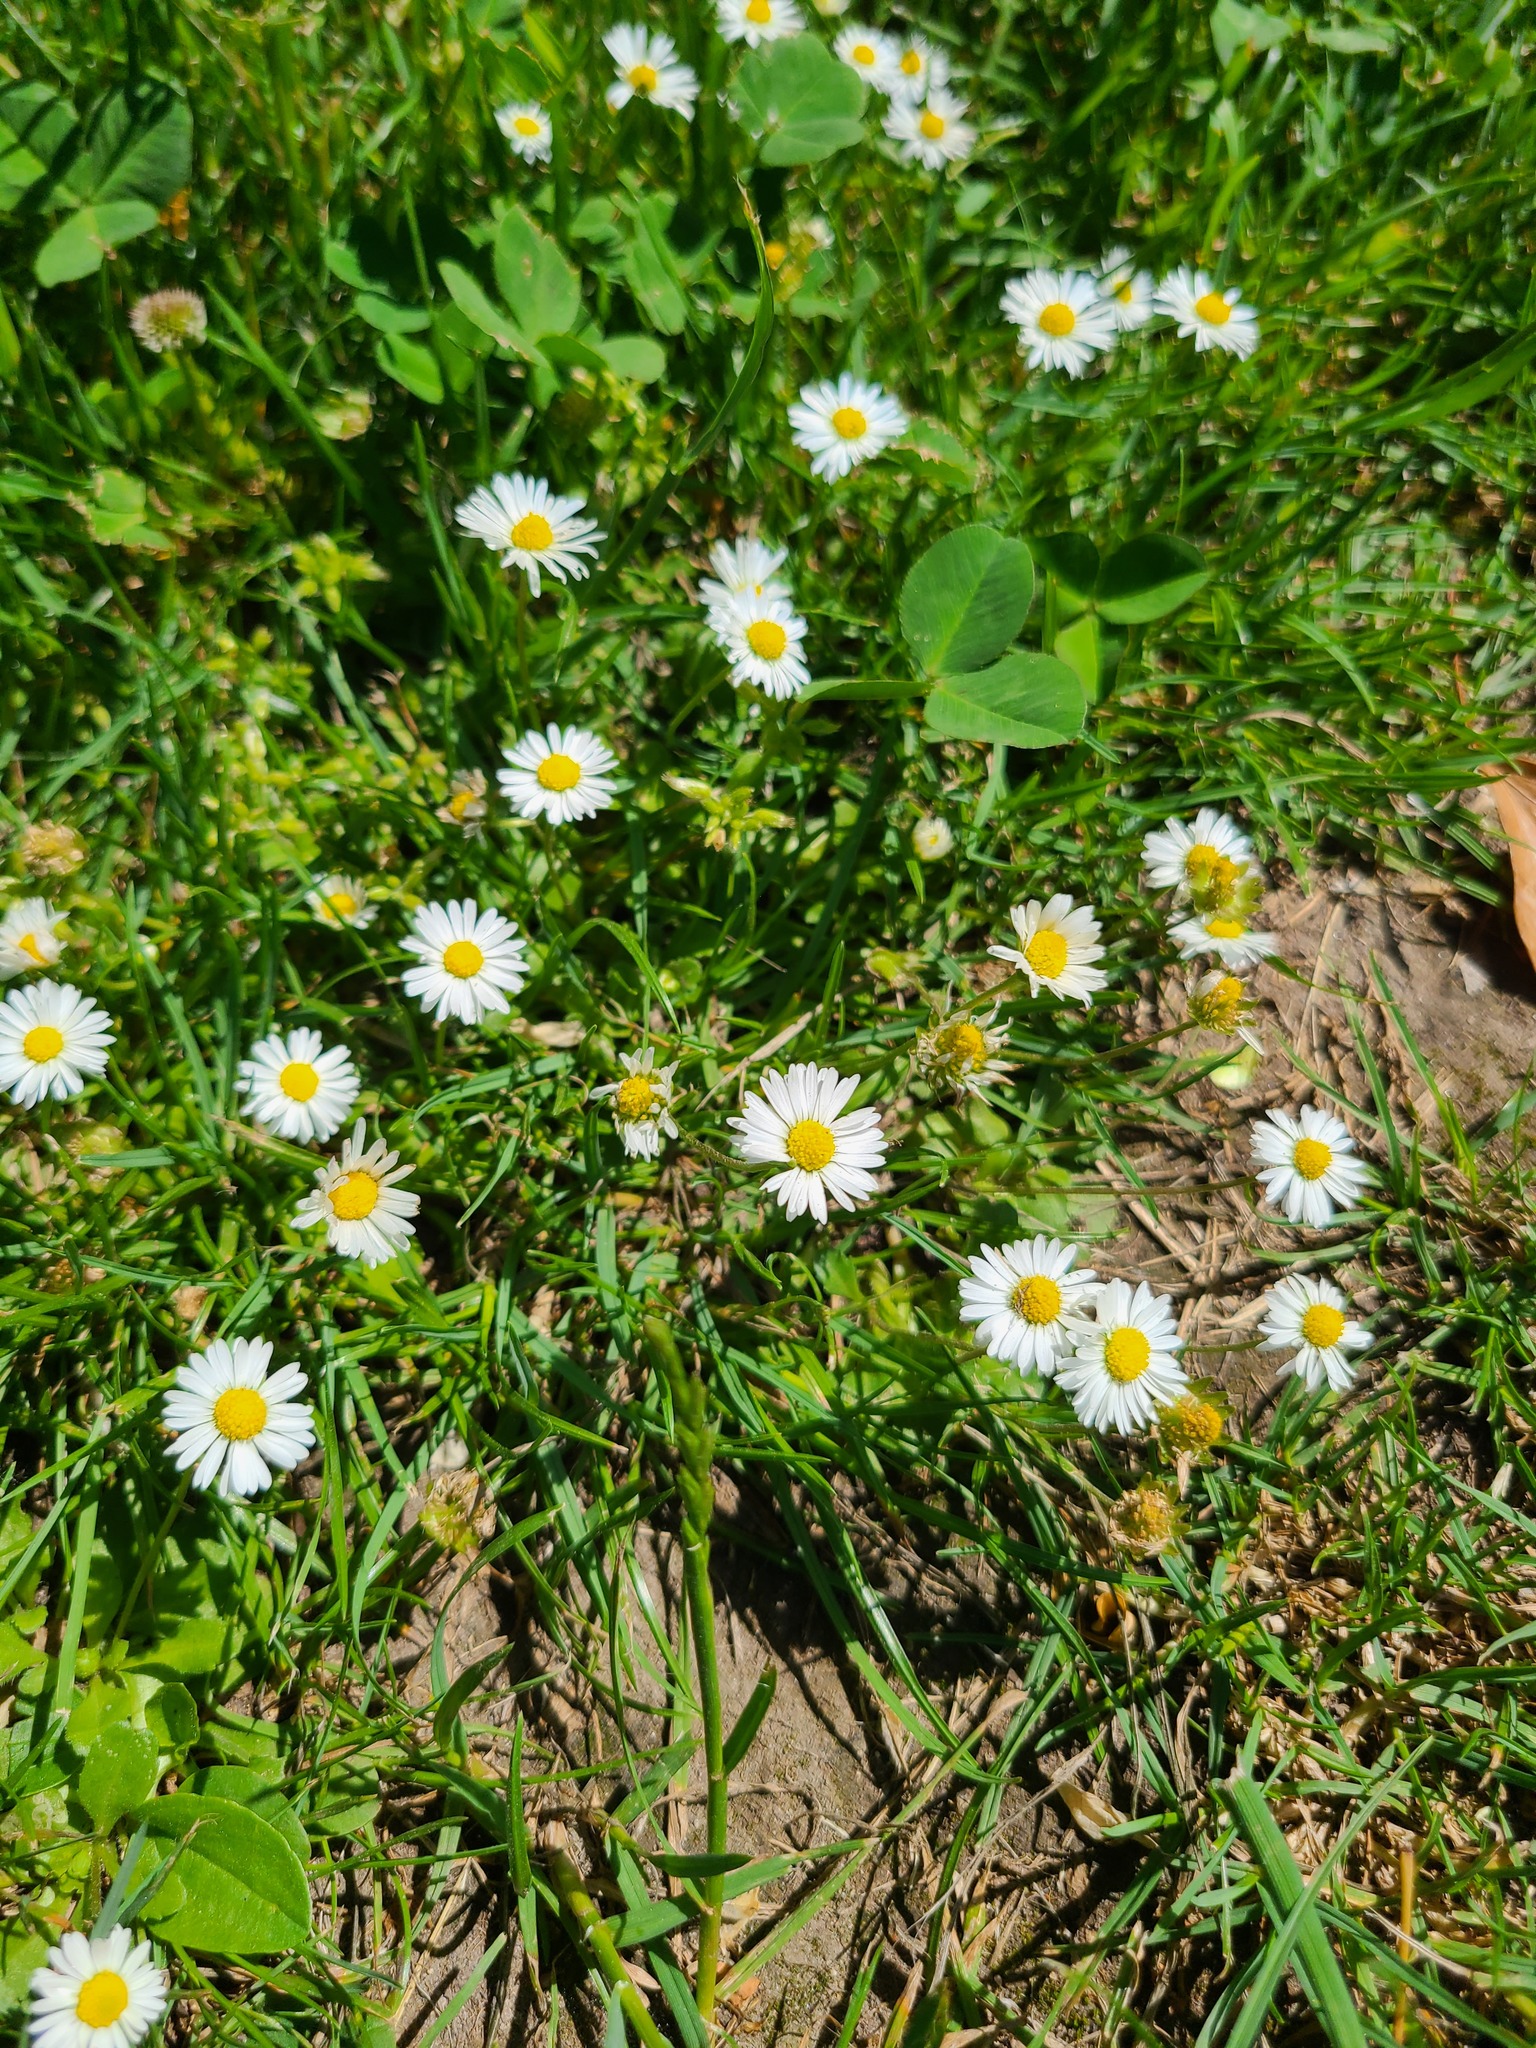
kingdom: Plantae
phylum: Tracheophyta
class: Magnoliopsida
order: Asterales
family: Asteraceae
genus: Bellis
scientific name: Bellis perennis
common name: Lawndaisy
